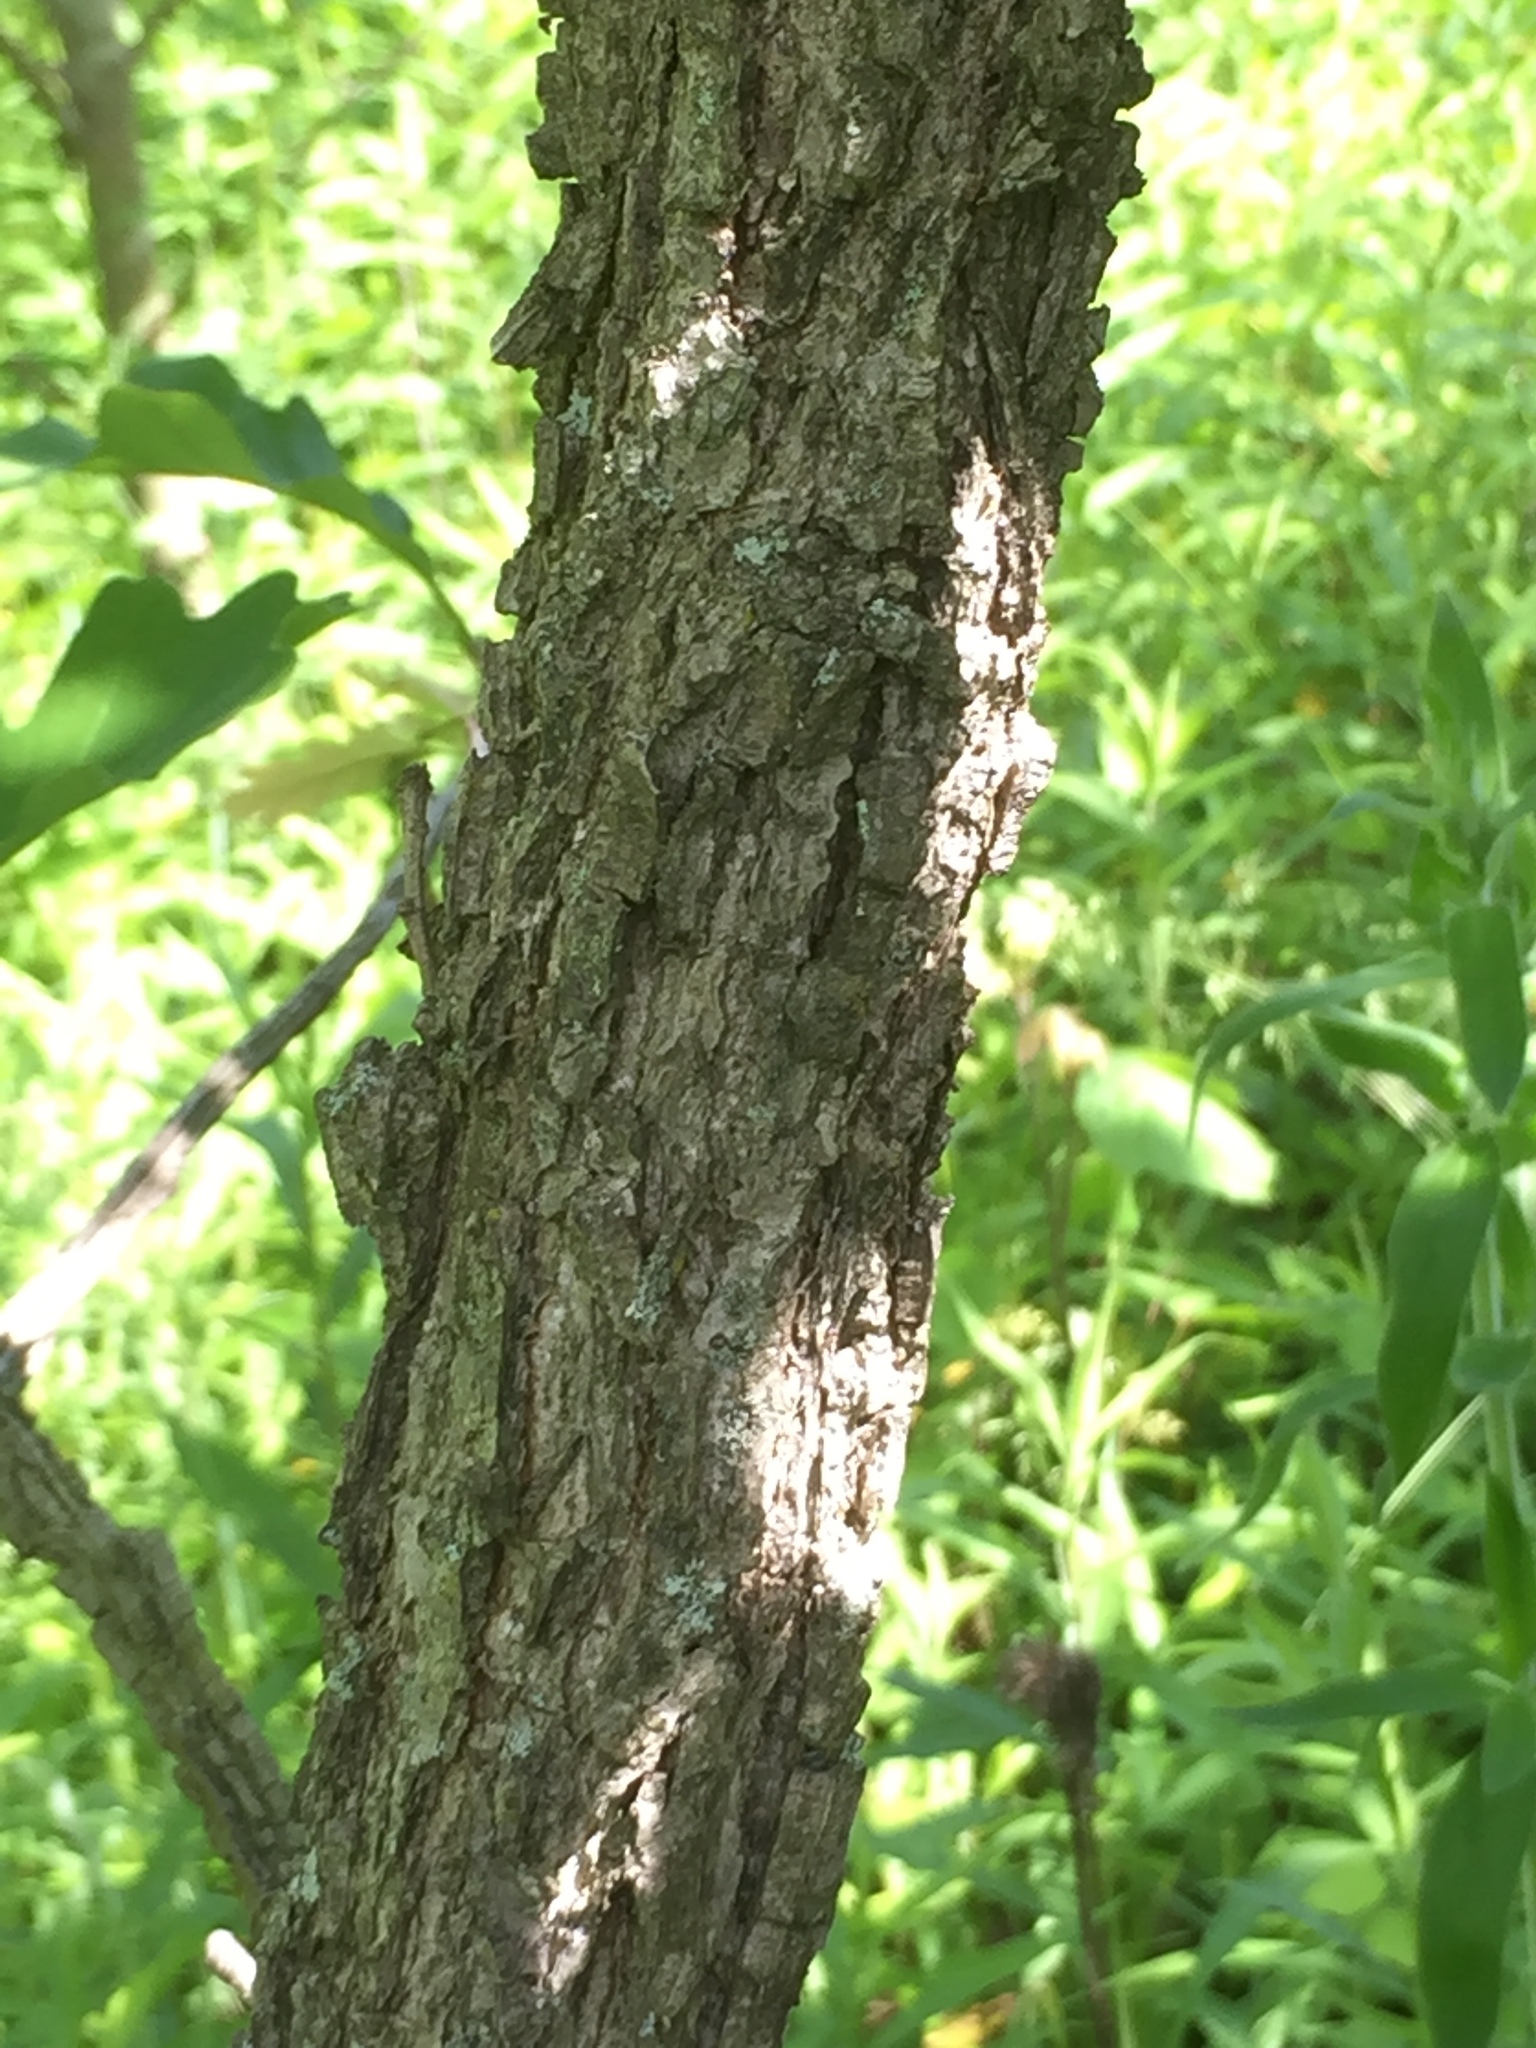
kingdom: Plantae
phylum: Tracheophyta
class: Magnoliopsida
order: Fagales
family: Fagaceae
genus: Quercus
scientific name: Quercus macrocarpa
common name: Bur oak
